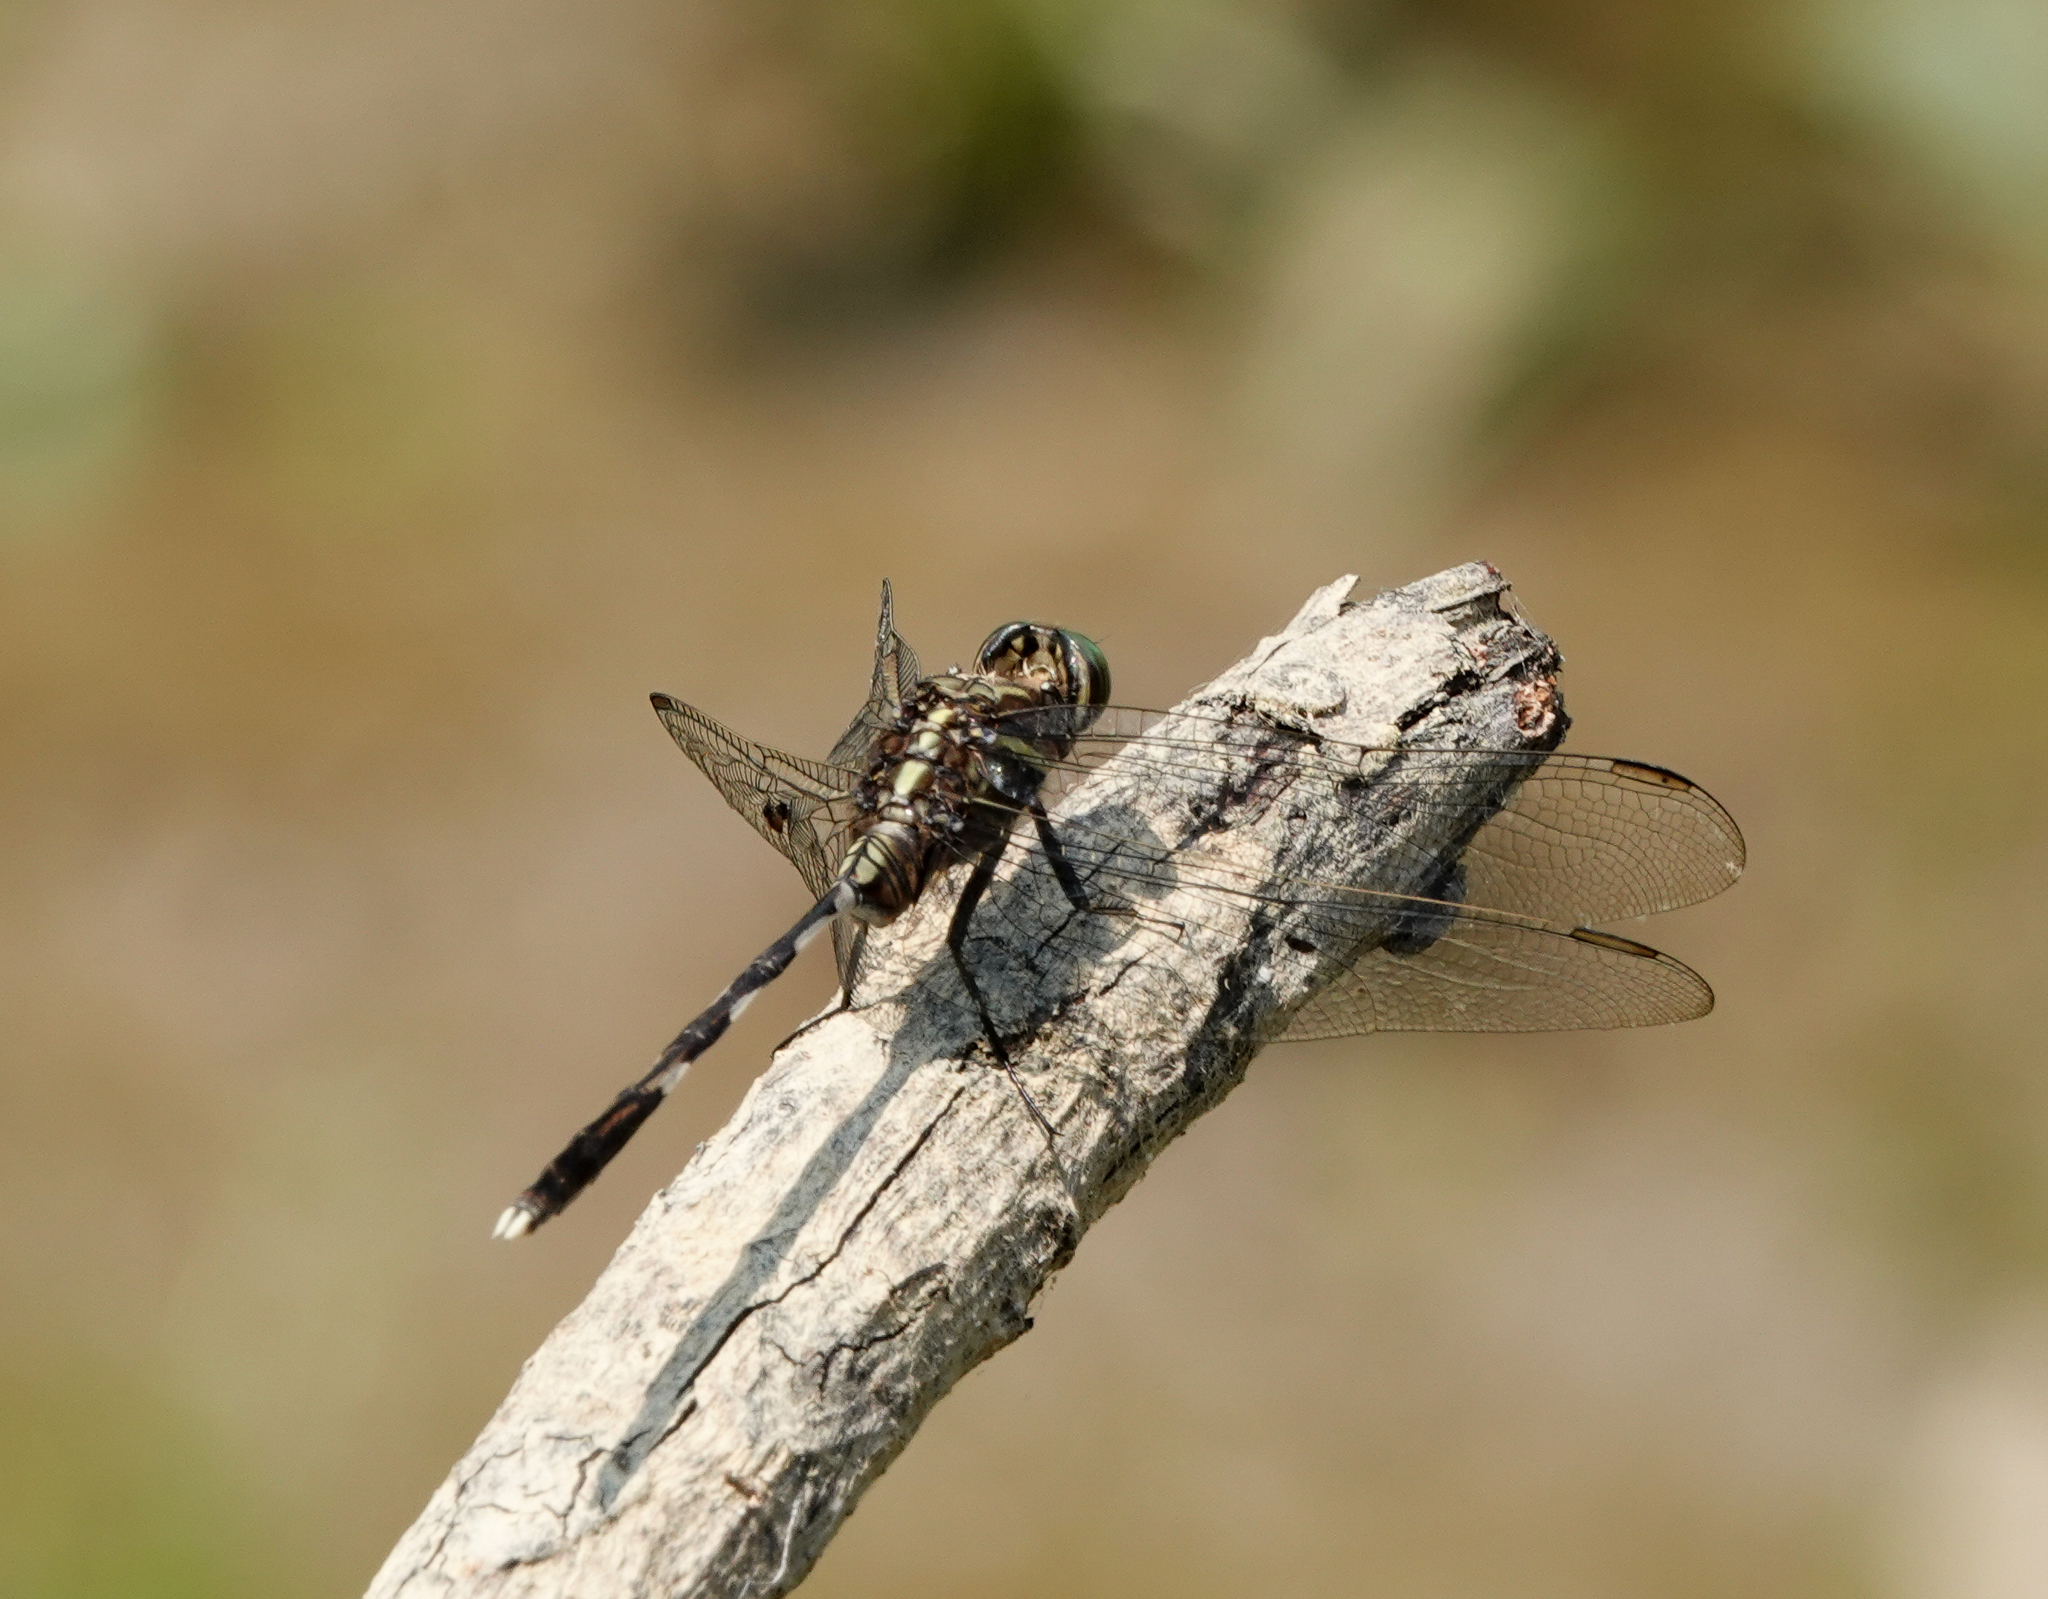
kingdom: Animalia
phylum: Arthropoda
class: Insecta
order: Odonata
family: Libellulidae
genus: Orthetrum
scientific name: Orthetrum sabina
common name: Slender skimmer
